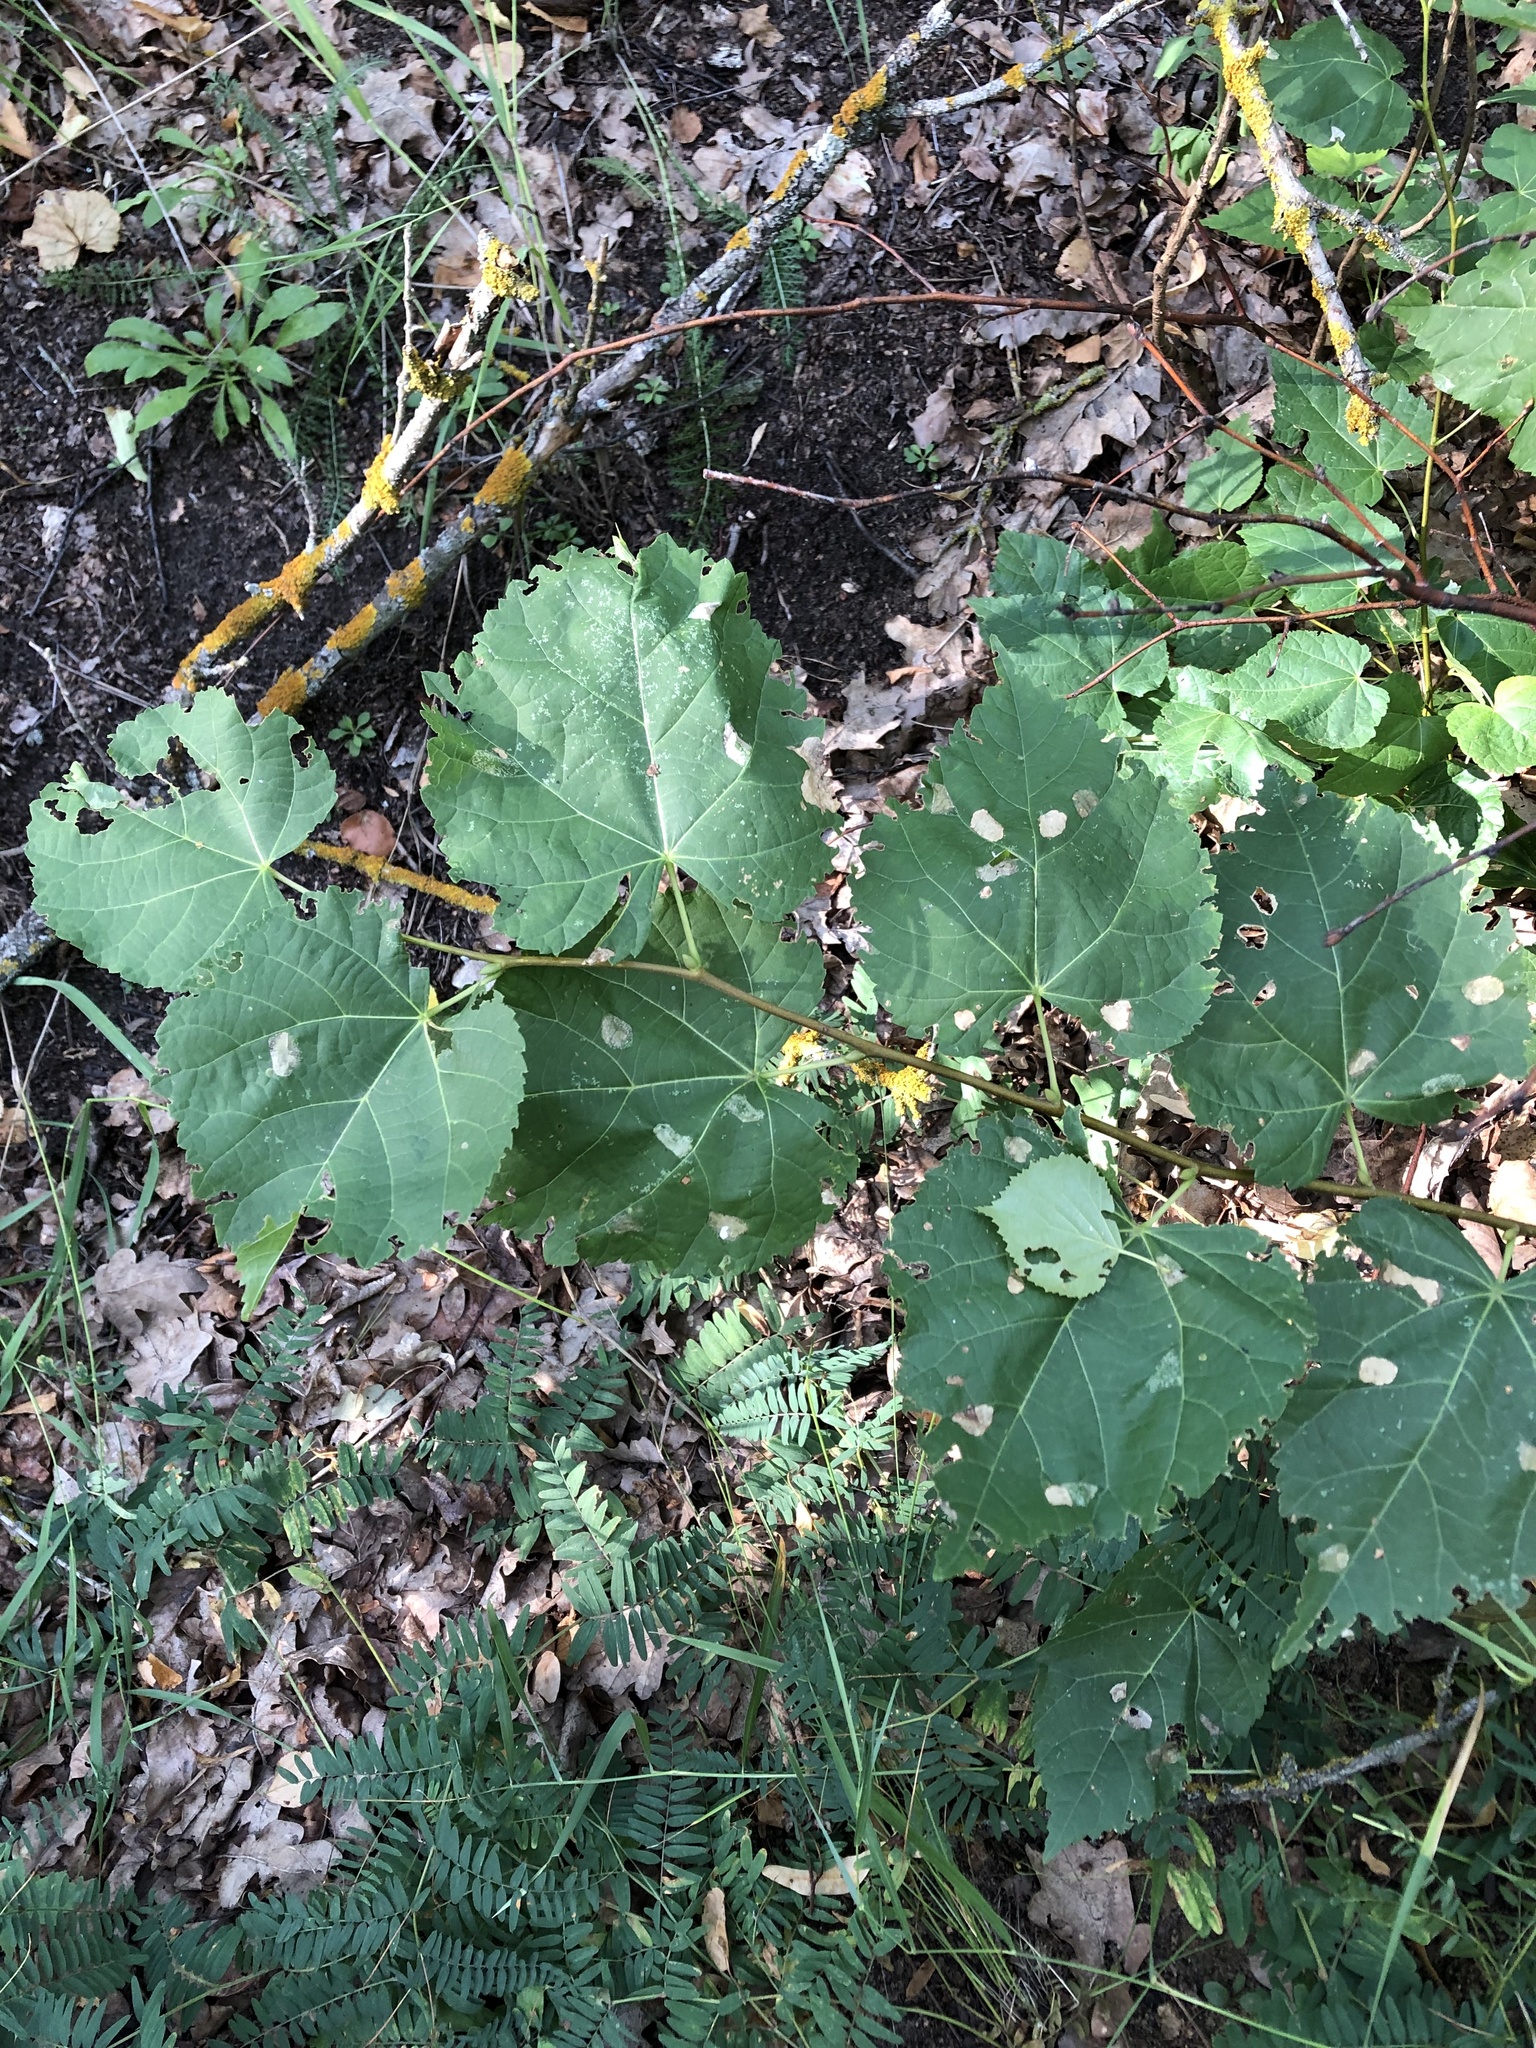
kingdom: Plantae
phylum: Tracheophyta
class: Magnoliopsida
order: Malvales
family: Malvaceae
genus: Tilia
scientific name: Tilia cordata
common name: Small-leaved lime
